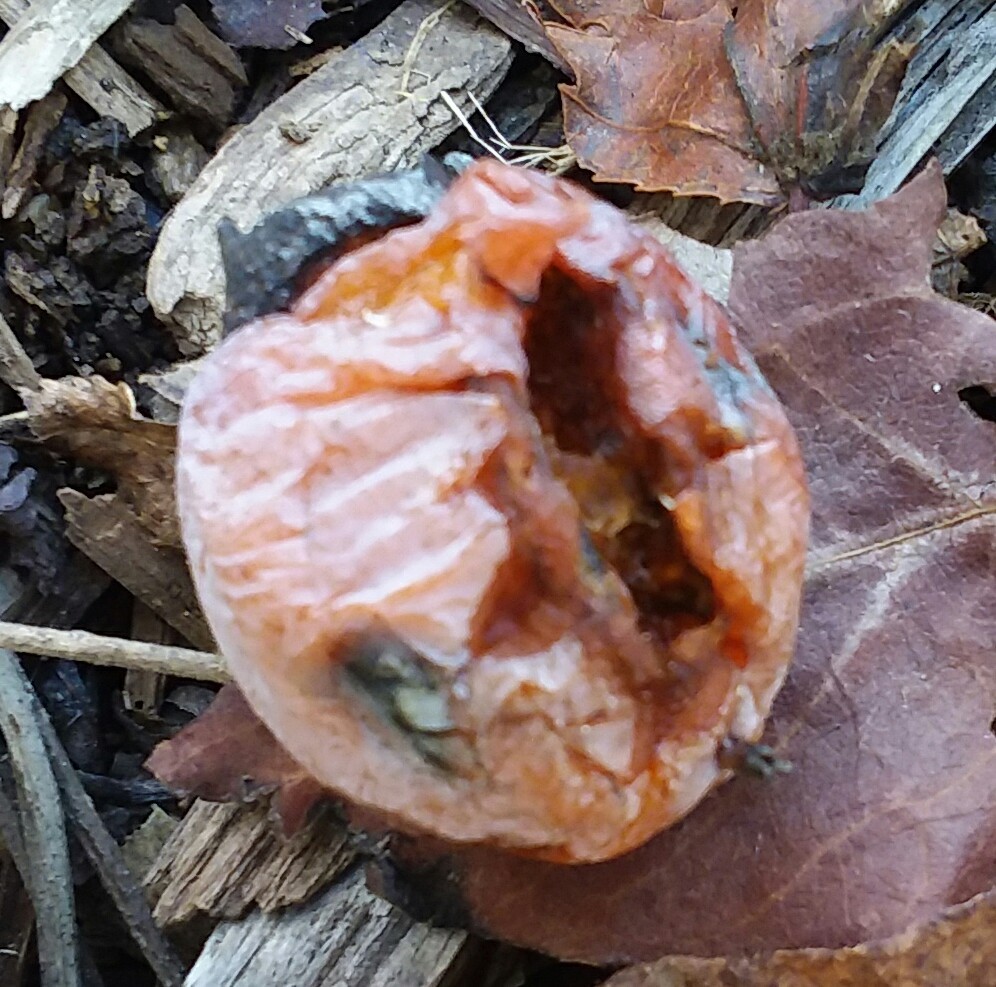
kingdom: Plantae
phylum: Tracheophyta
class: Magnoliopsida
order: Ericales
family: Ebenaceae
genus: Diospyros
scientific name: Diospyros virginiana
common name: Persimmon
